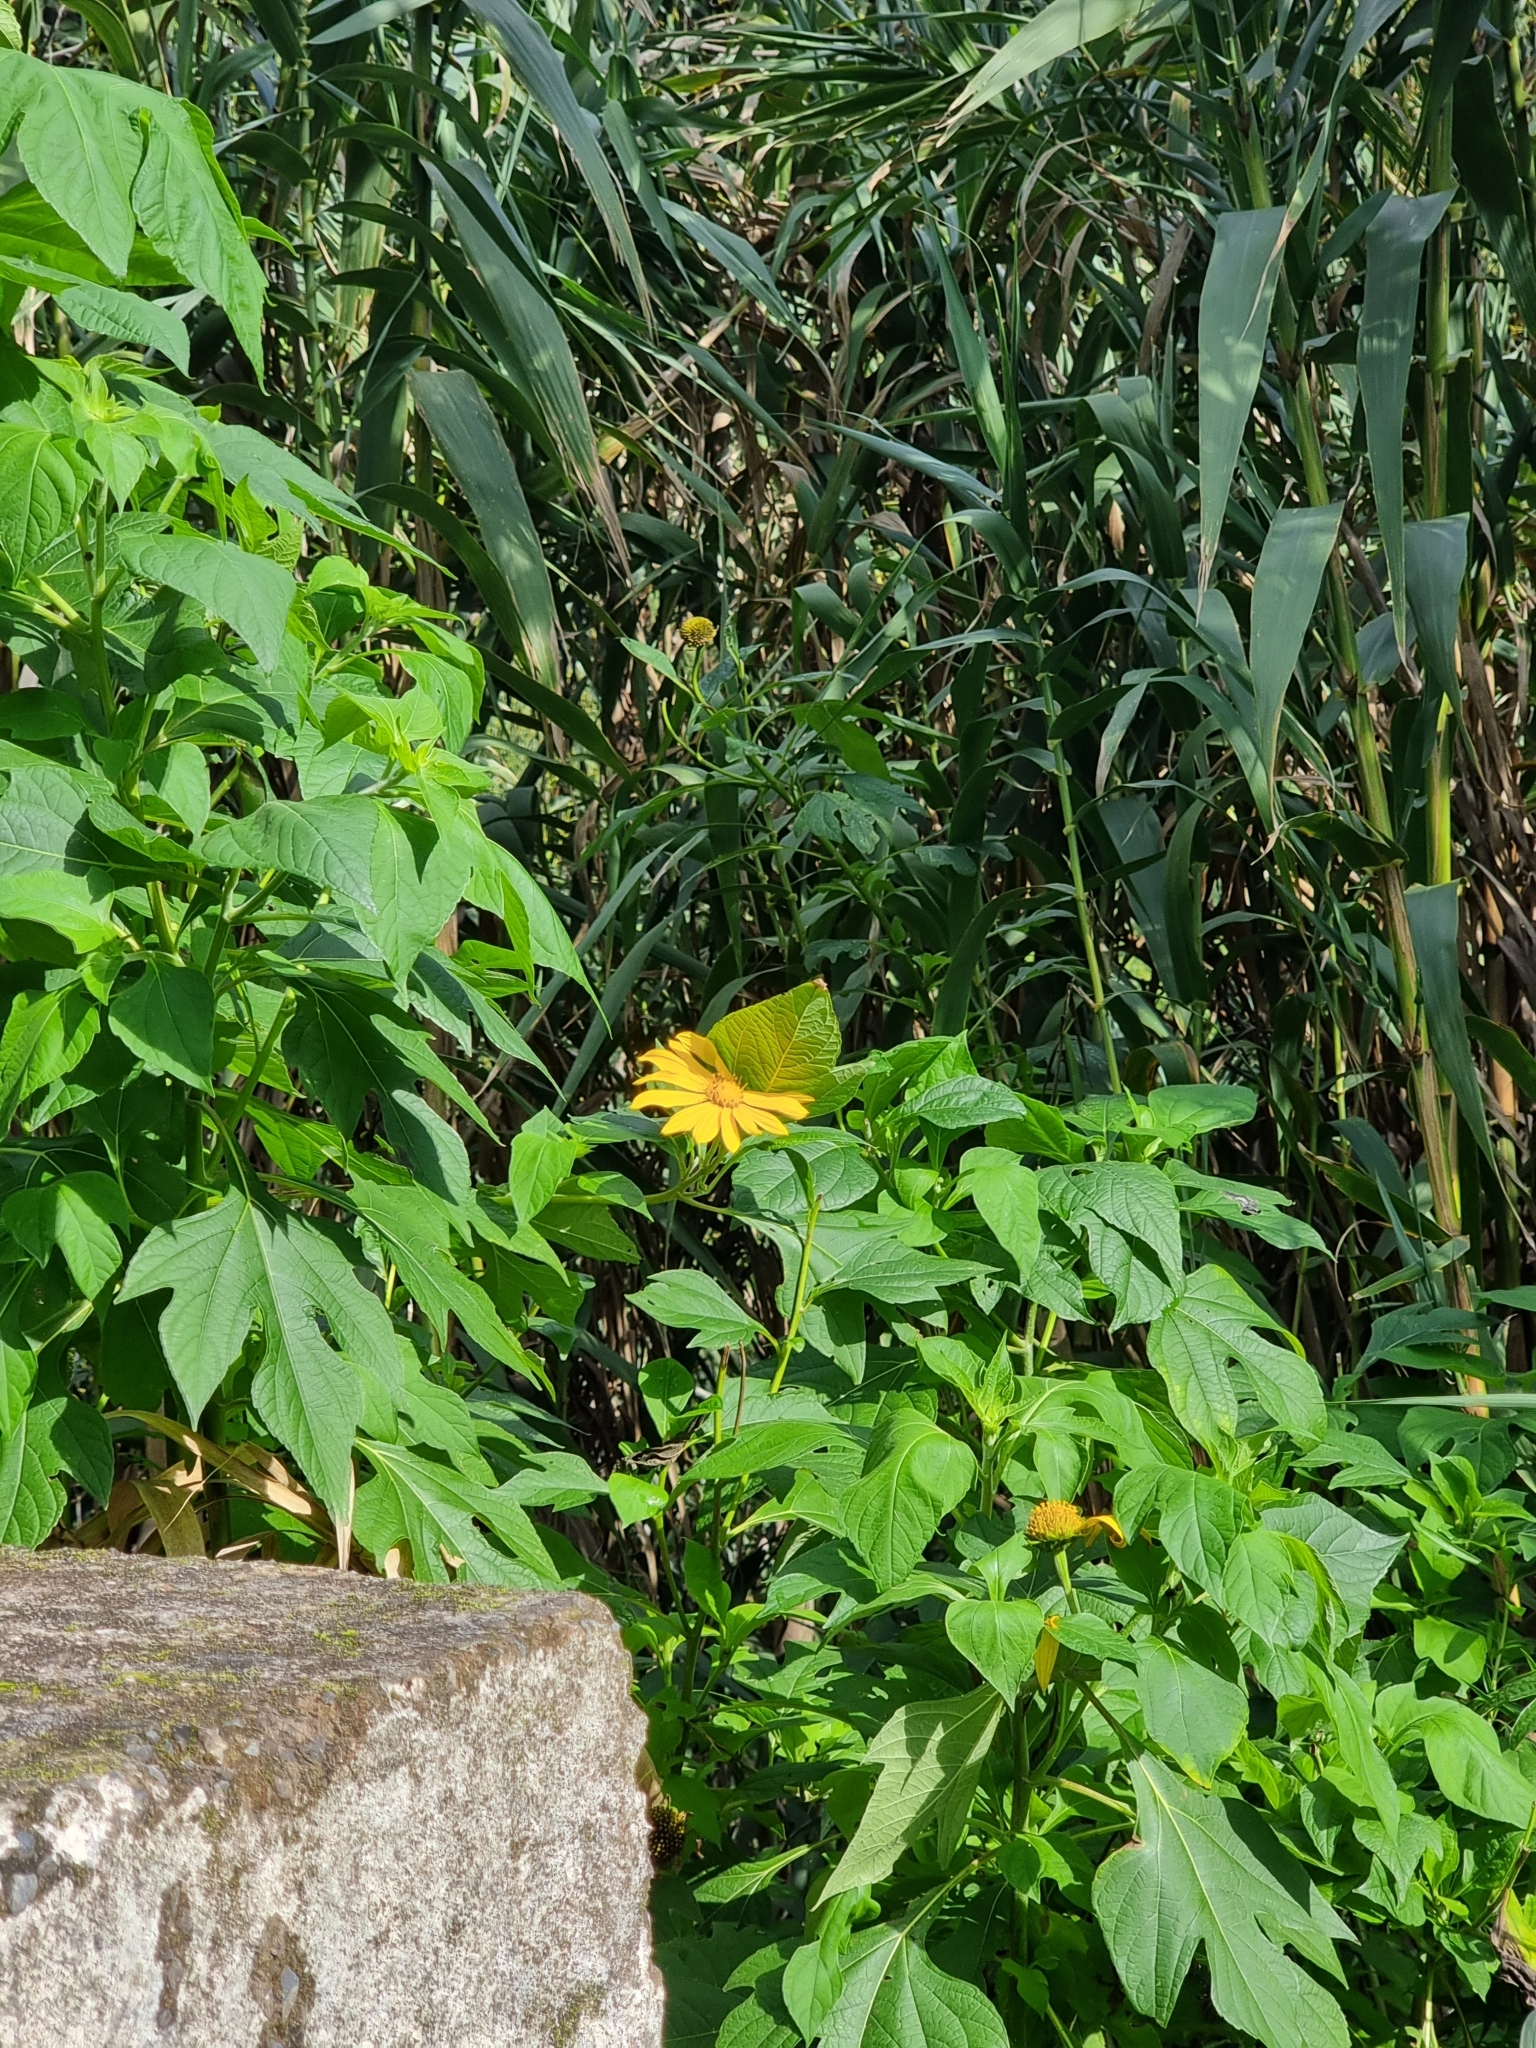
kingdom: Plantae
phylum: Tracheophyta
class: Magnoliopsida
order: Asterales
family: Asteraceae
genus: Tithonia
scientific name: Tithonia diversifolia
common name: Tree marigold
